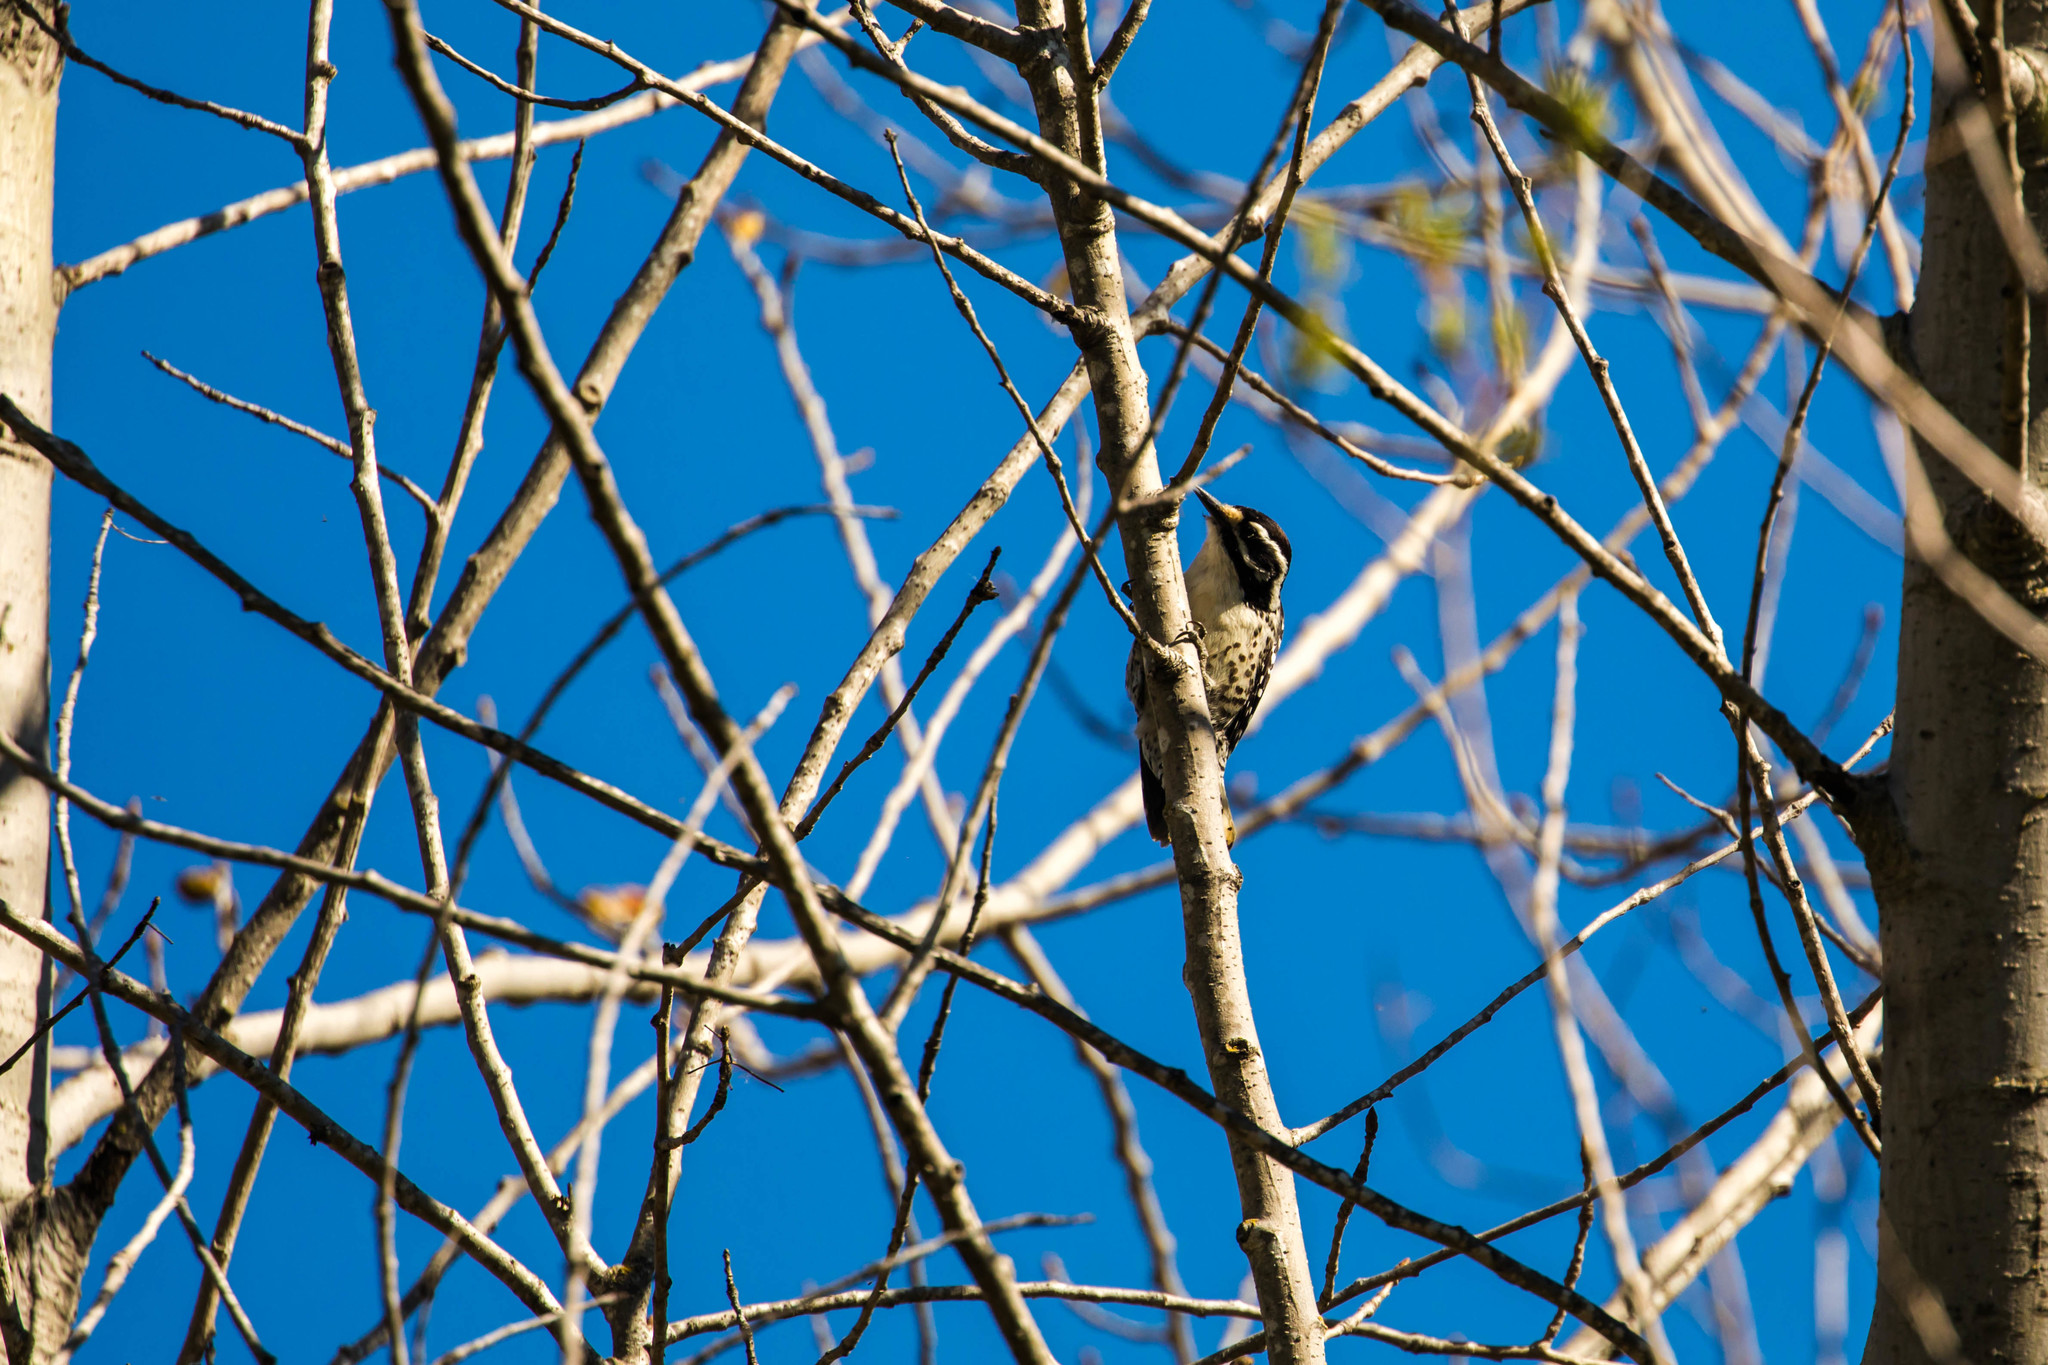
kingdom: Animalia
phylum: Chordata
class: Aves
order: Piciformes
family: Picidae
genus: Dryobates
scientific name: Dryobates nuttallii
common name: Nuttall's woodpecker
